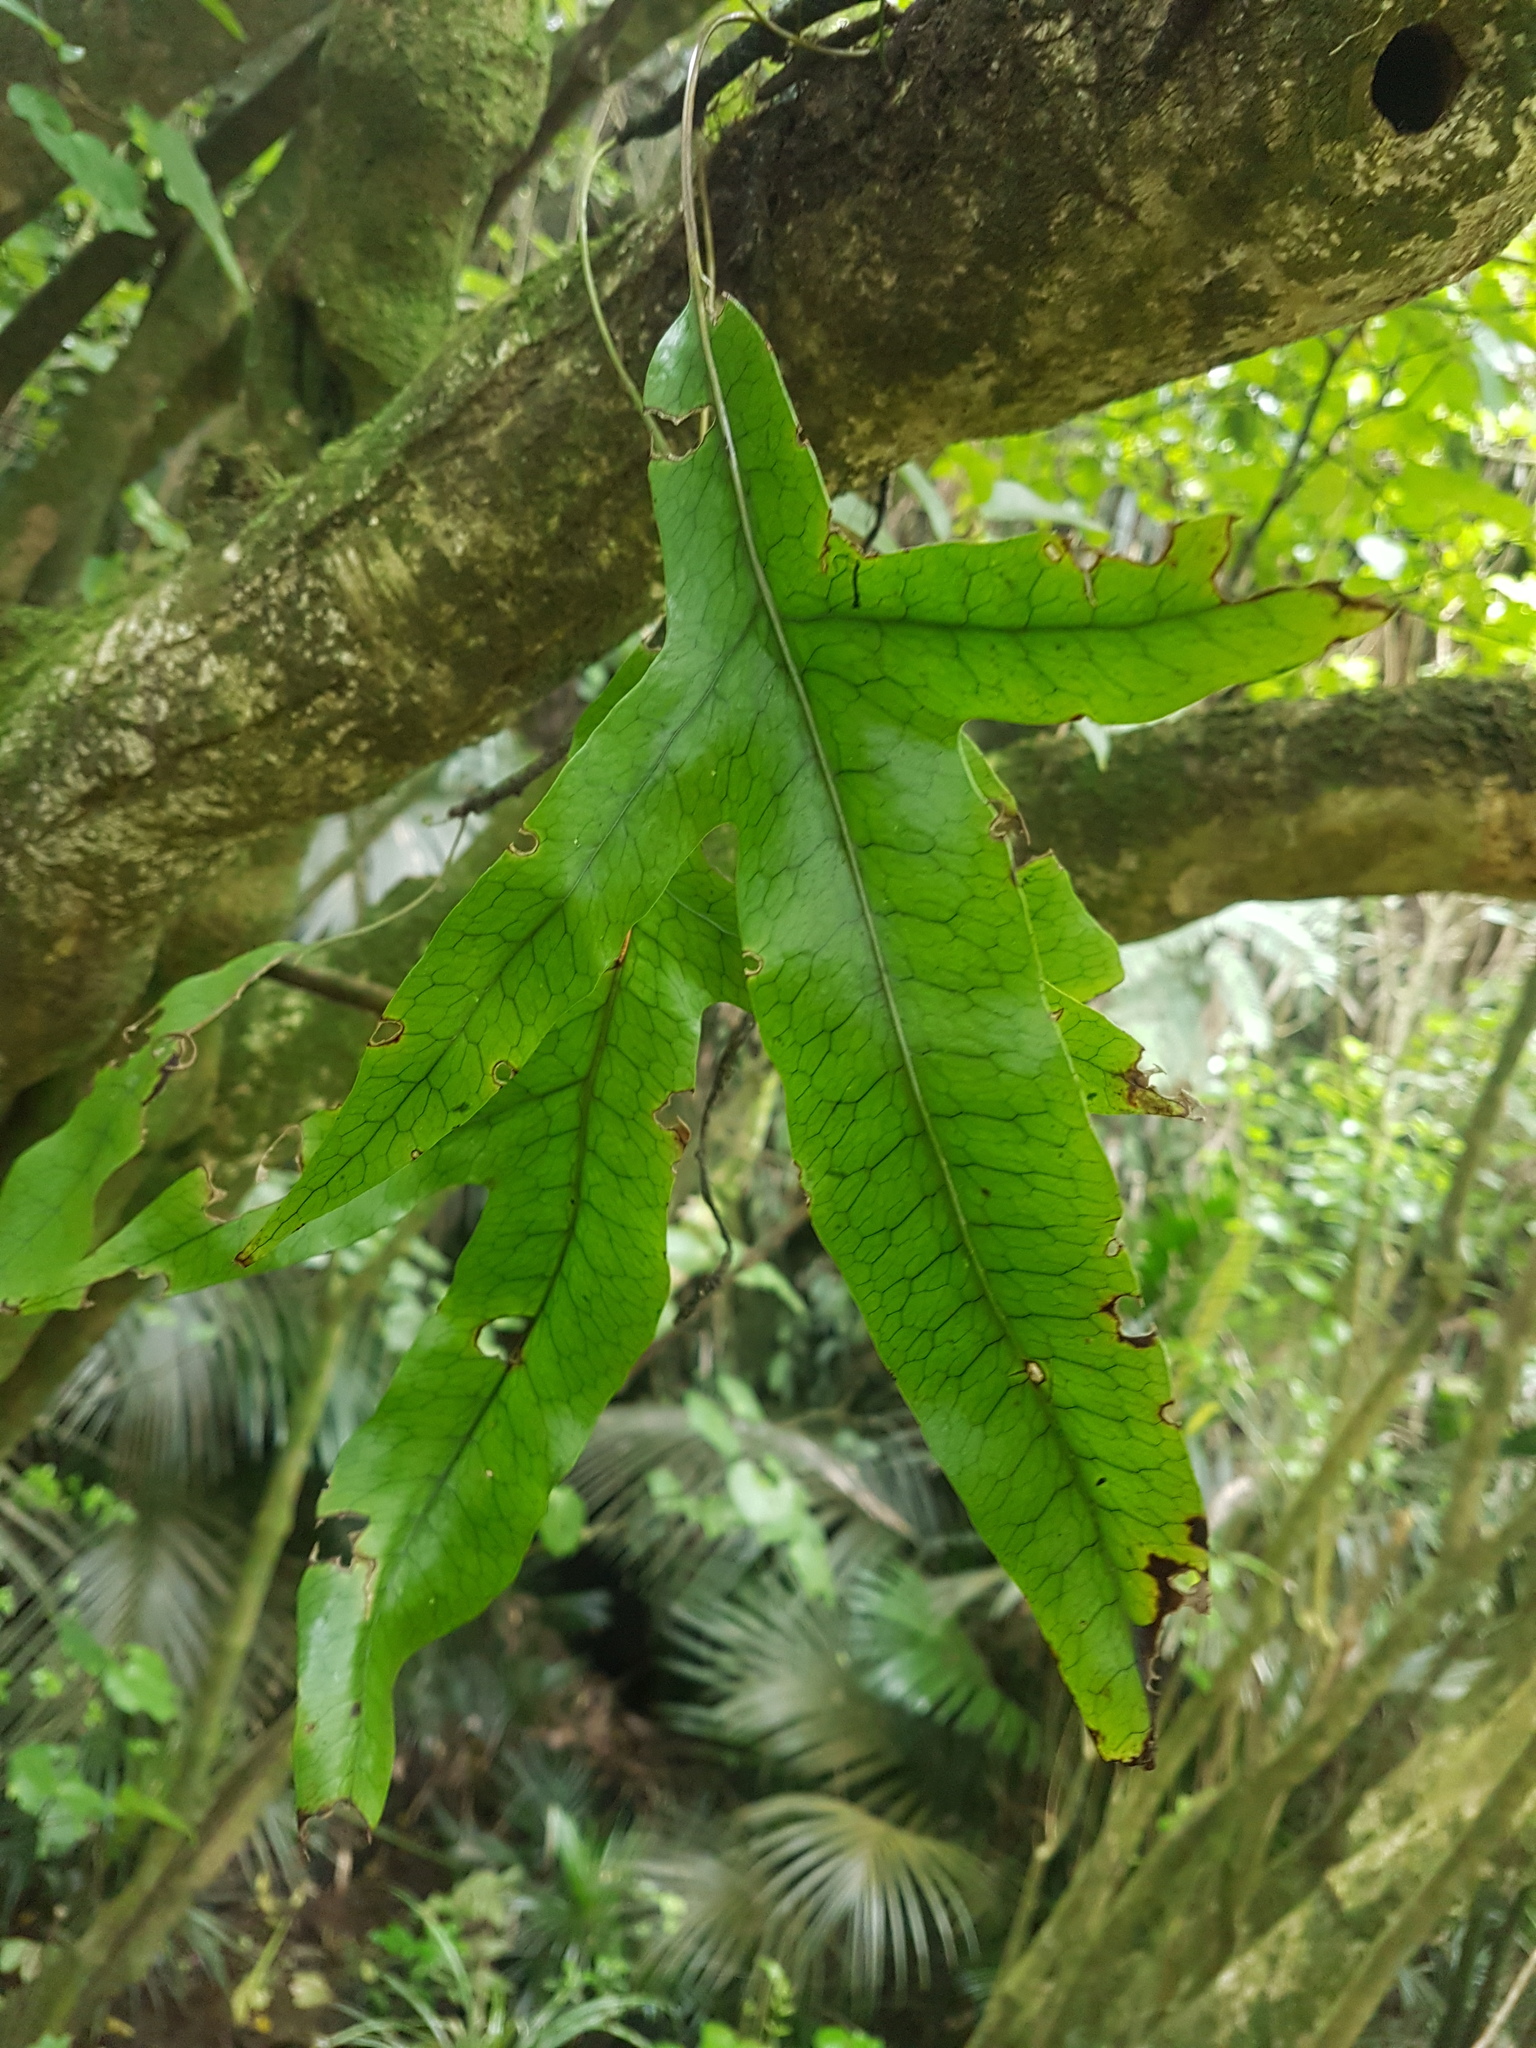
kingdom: Plantae
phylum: Tracheophyta
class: Polypodiopsida
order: Polypodiales
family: Polypodiaceae
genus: Lecanopteris
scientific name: Lecanopteris pustulata
